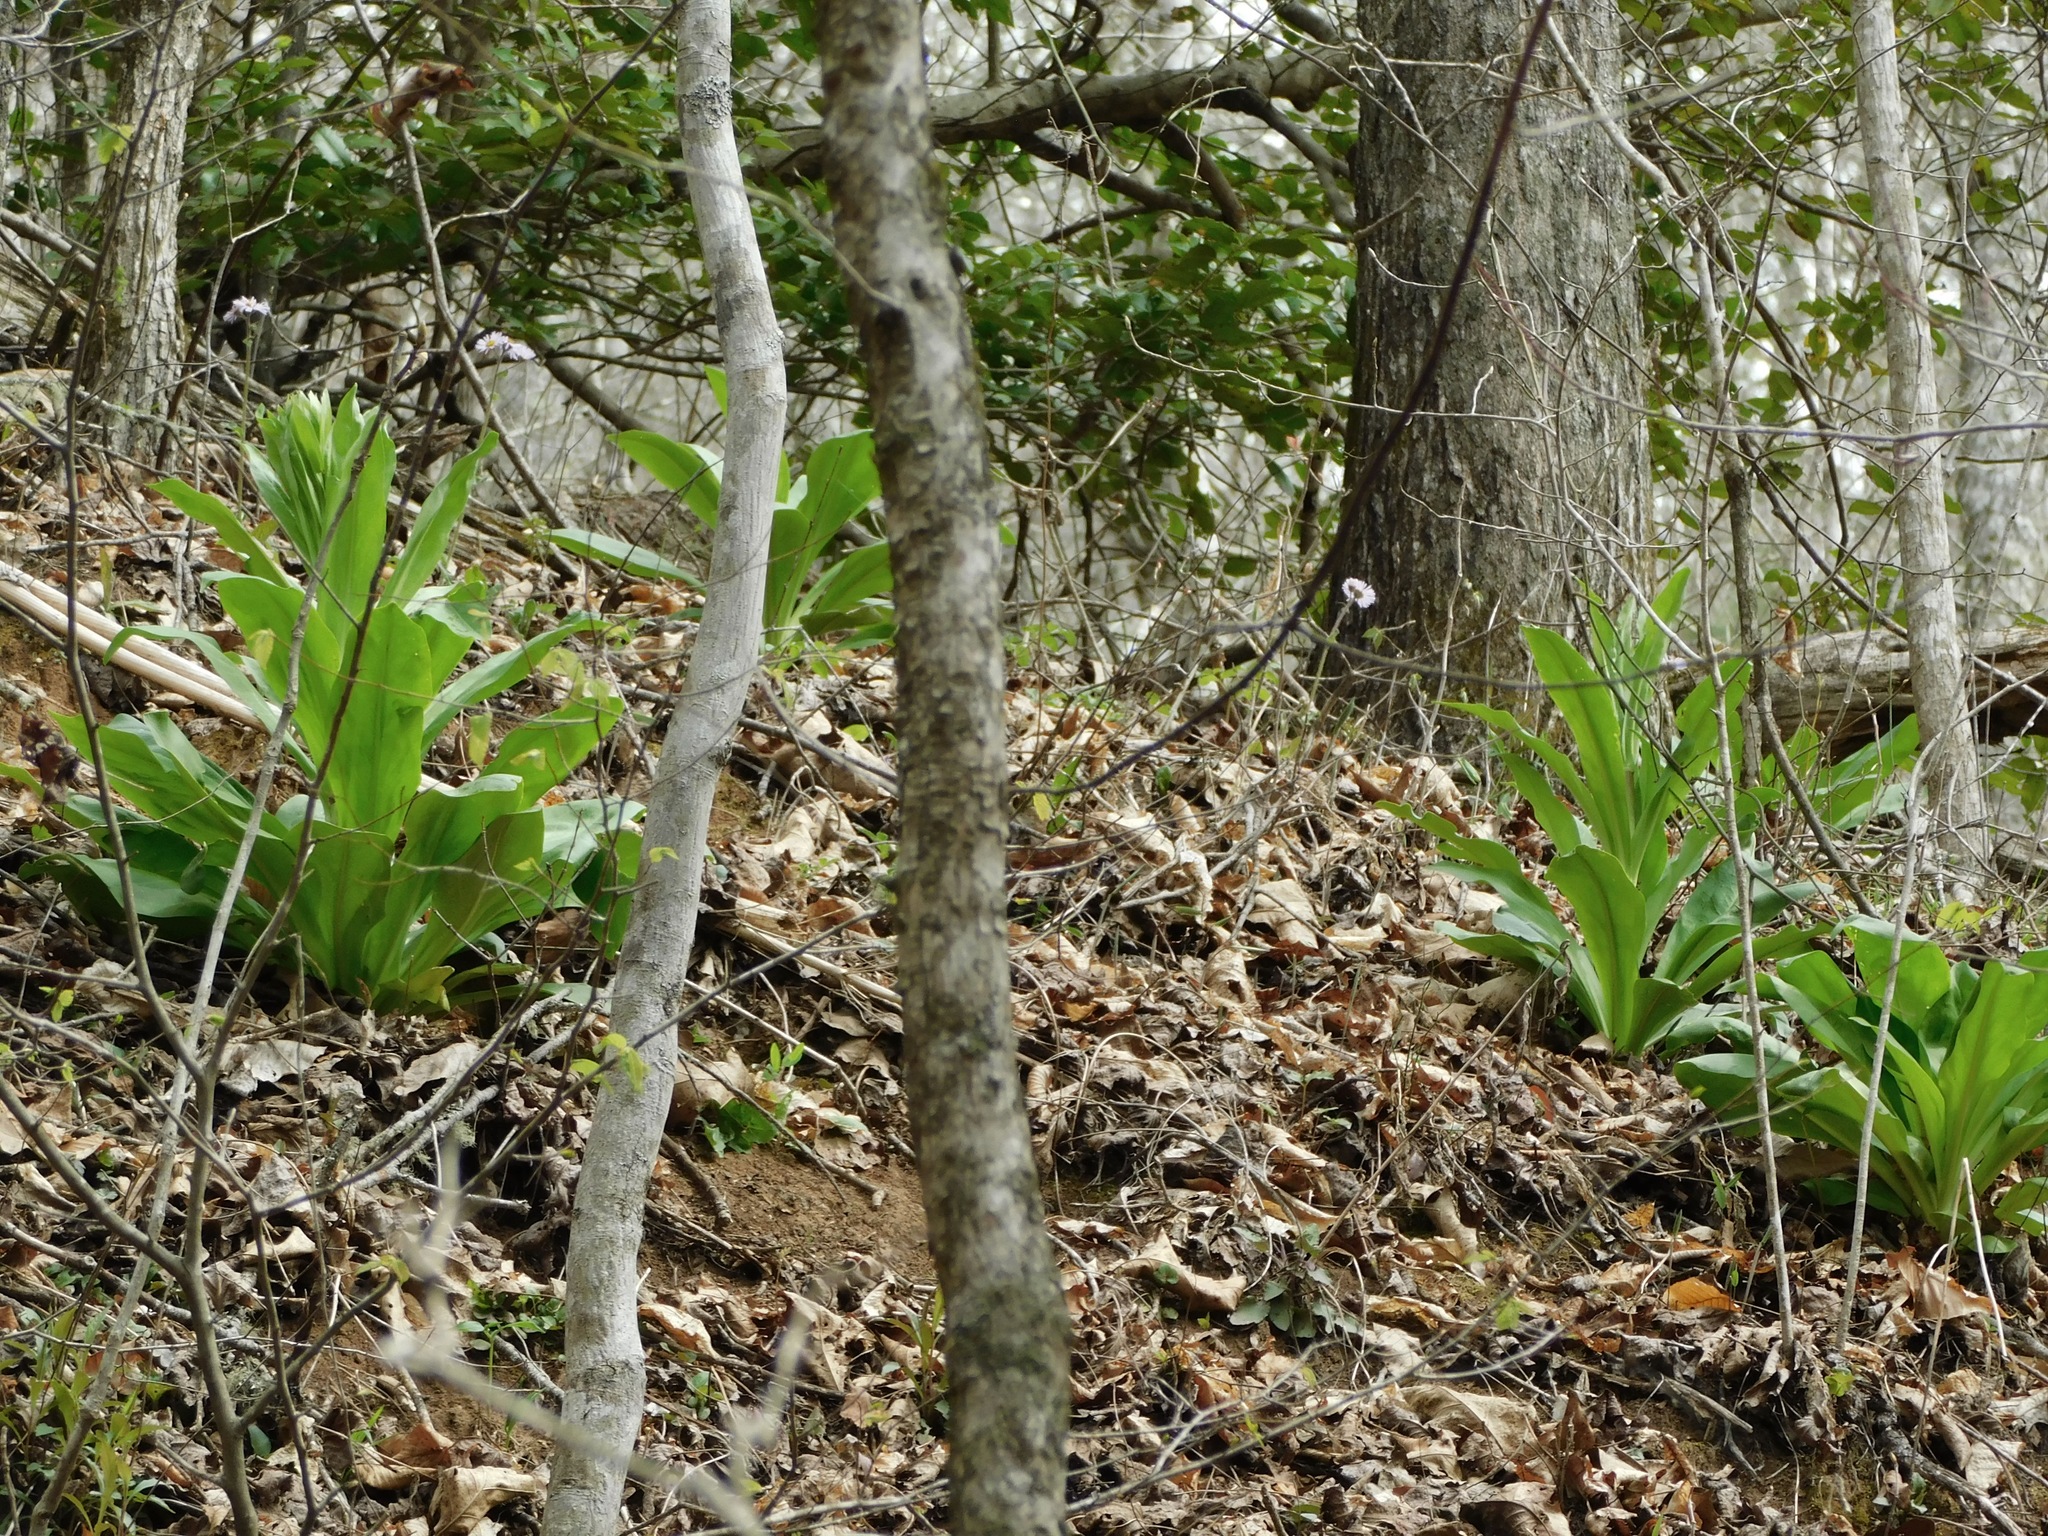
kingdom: Plantae
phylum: Tracheophyta
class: Magnoliopsida
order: Gentianales
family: Gentianaceae
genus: Frasera
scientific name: Frasera caroliniensis
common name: American columbo
